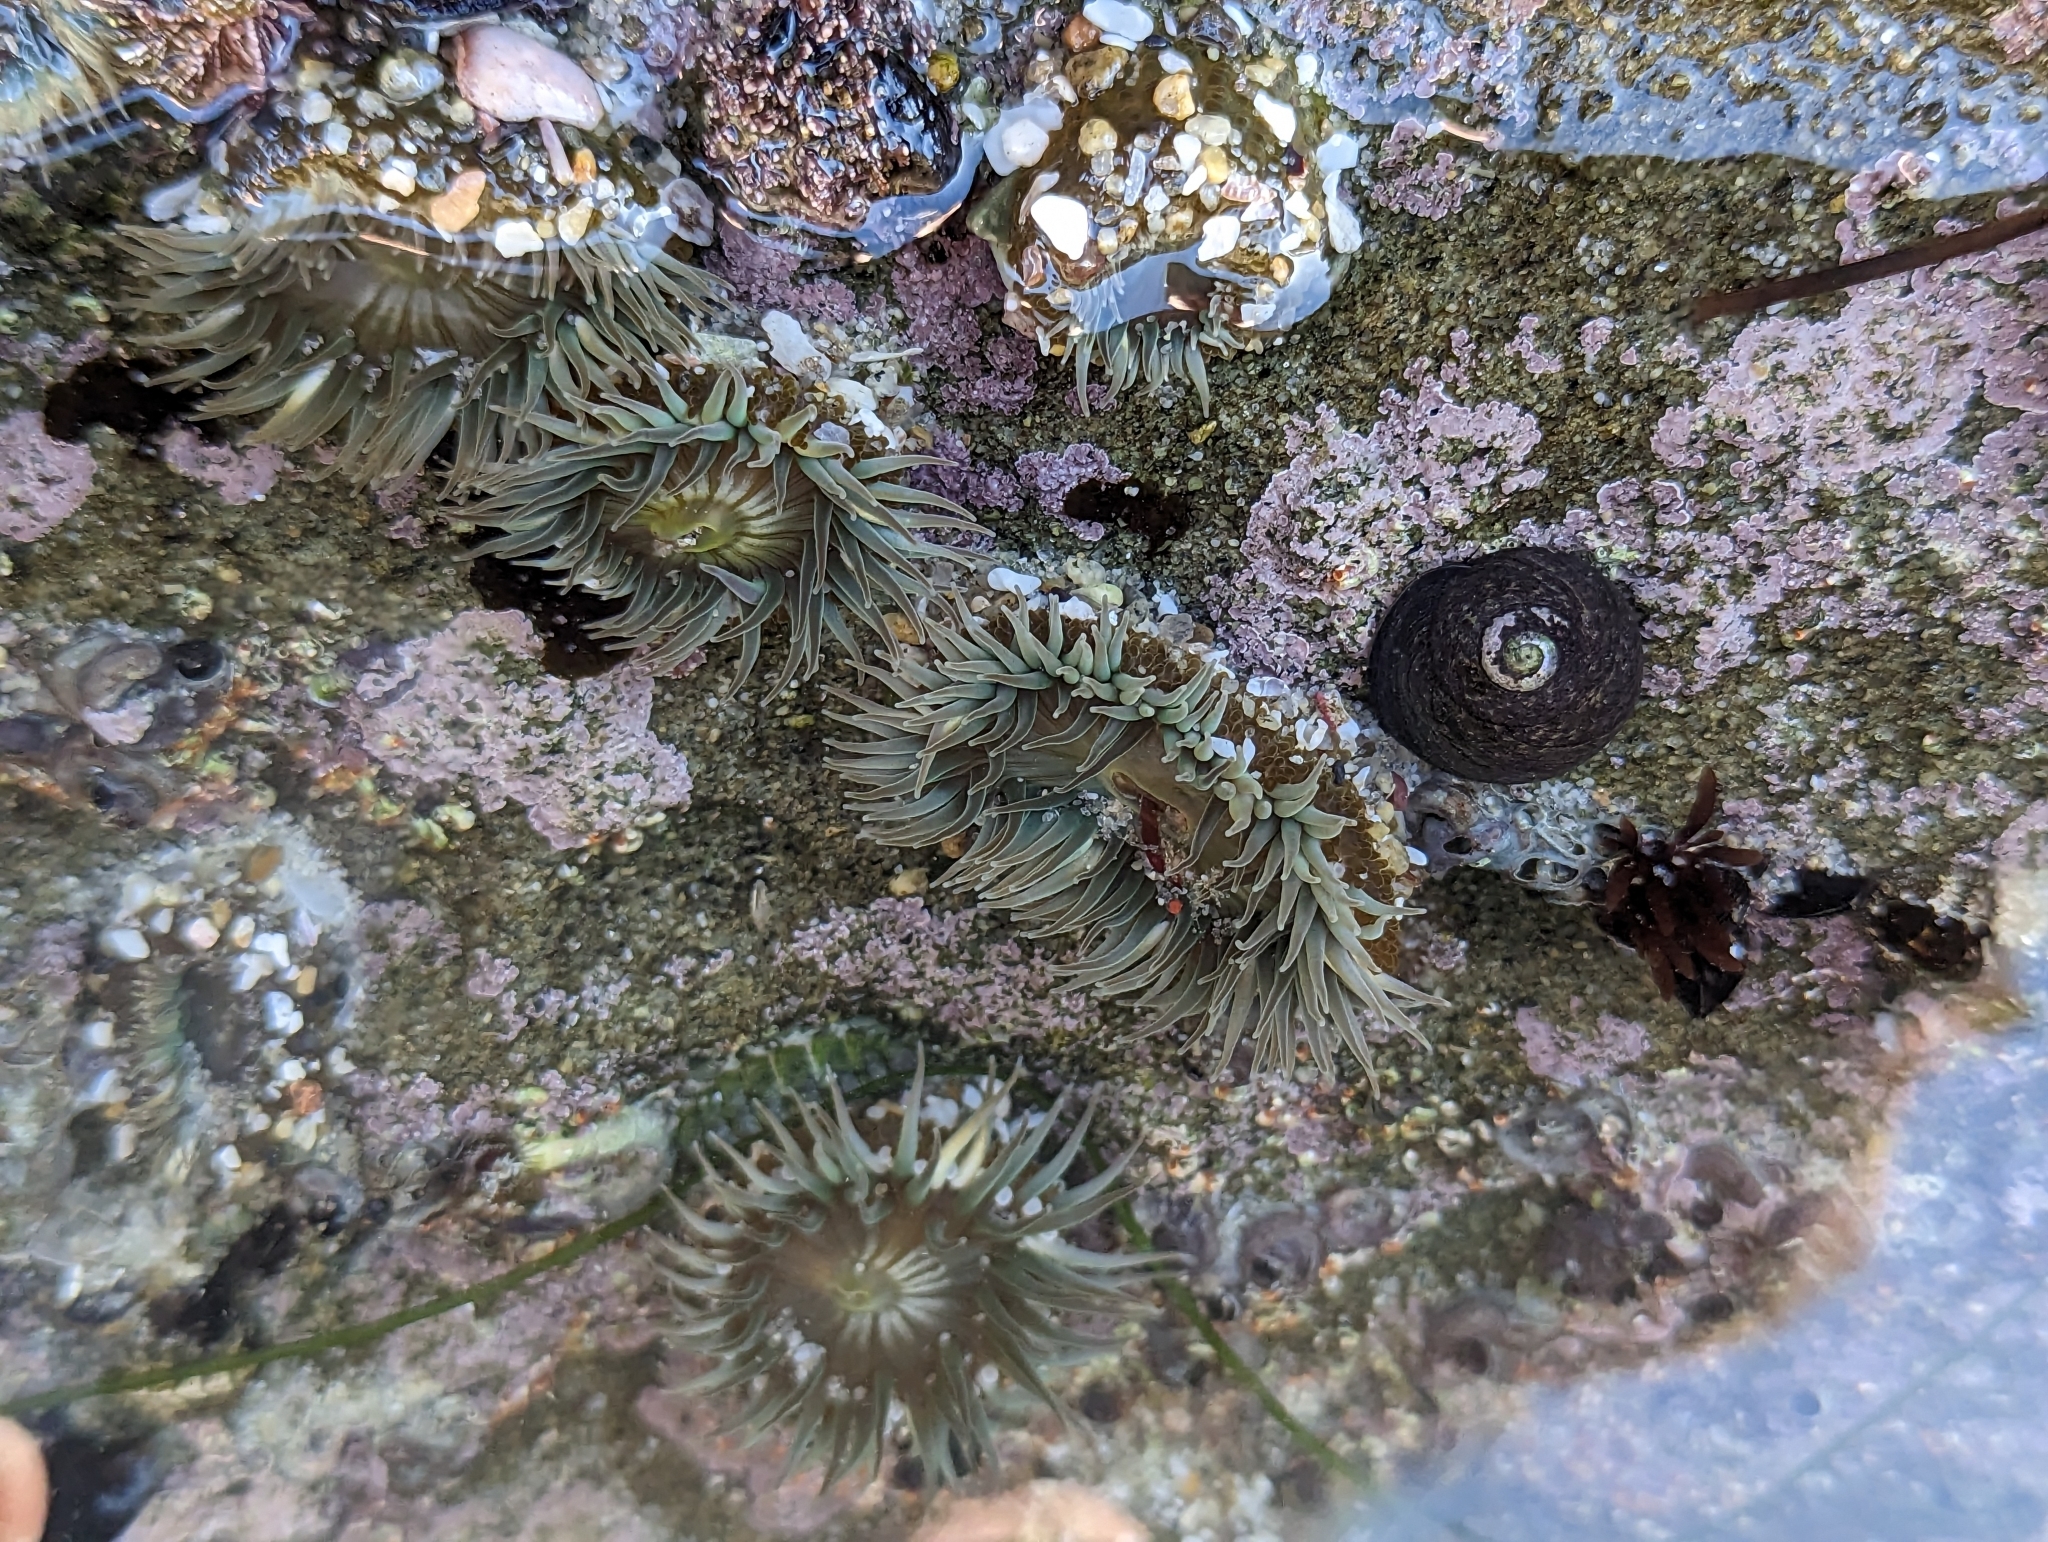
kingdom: Animalia
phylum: Cnidaria
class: Anthozoa
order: Actiniaria
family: Actiniidae
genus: Anthopleura
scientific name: Anthopleura elegantissima
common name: Clonal anemone
